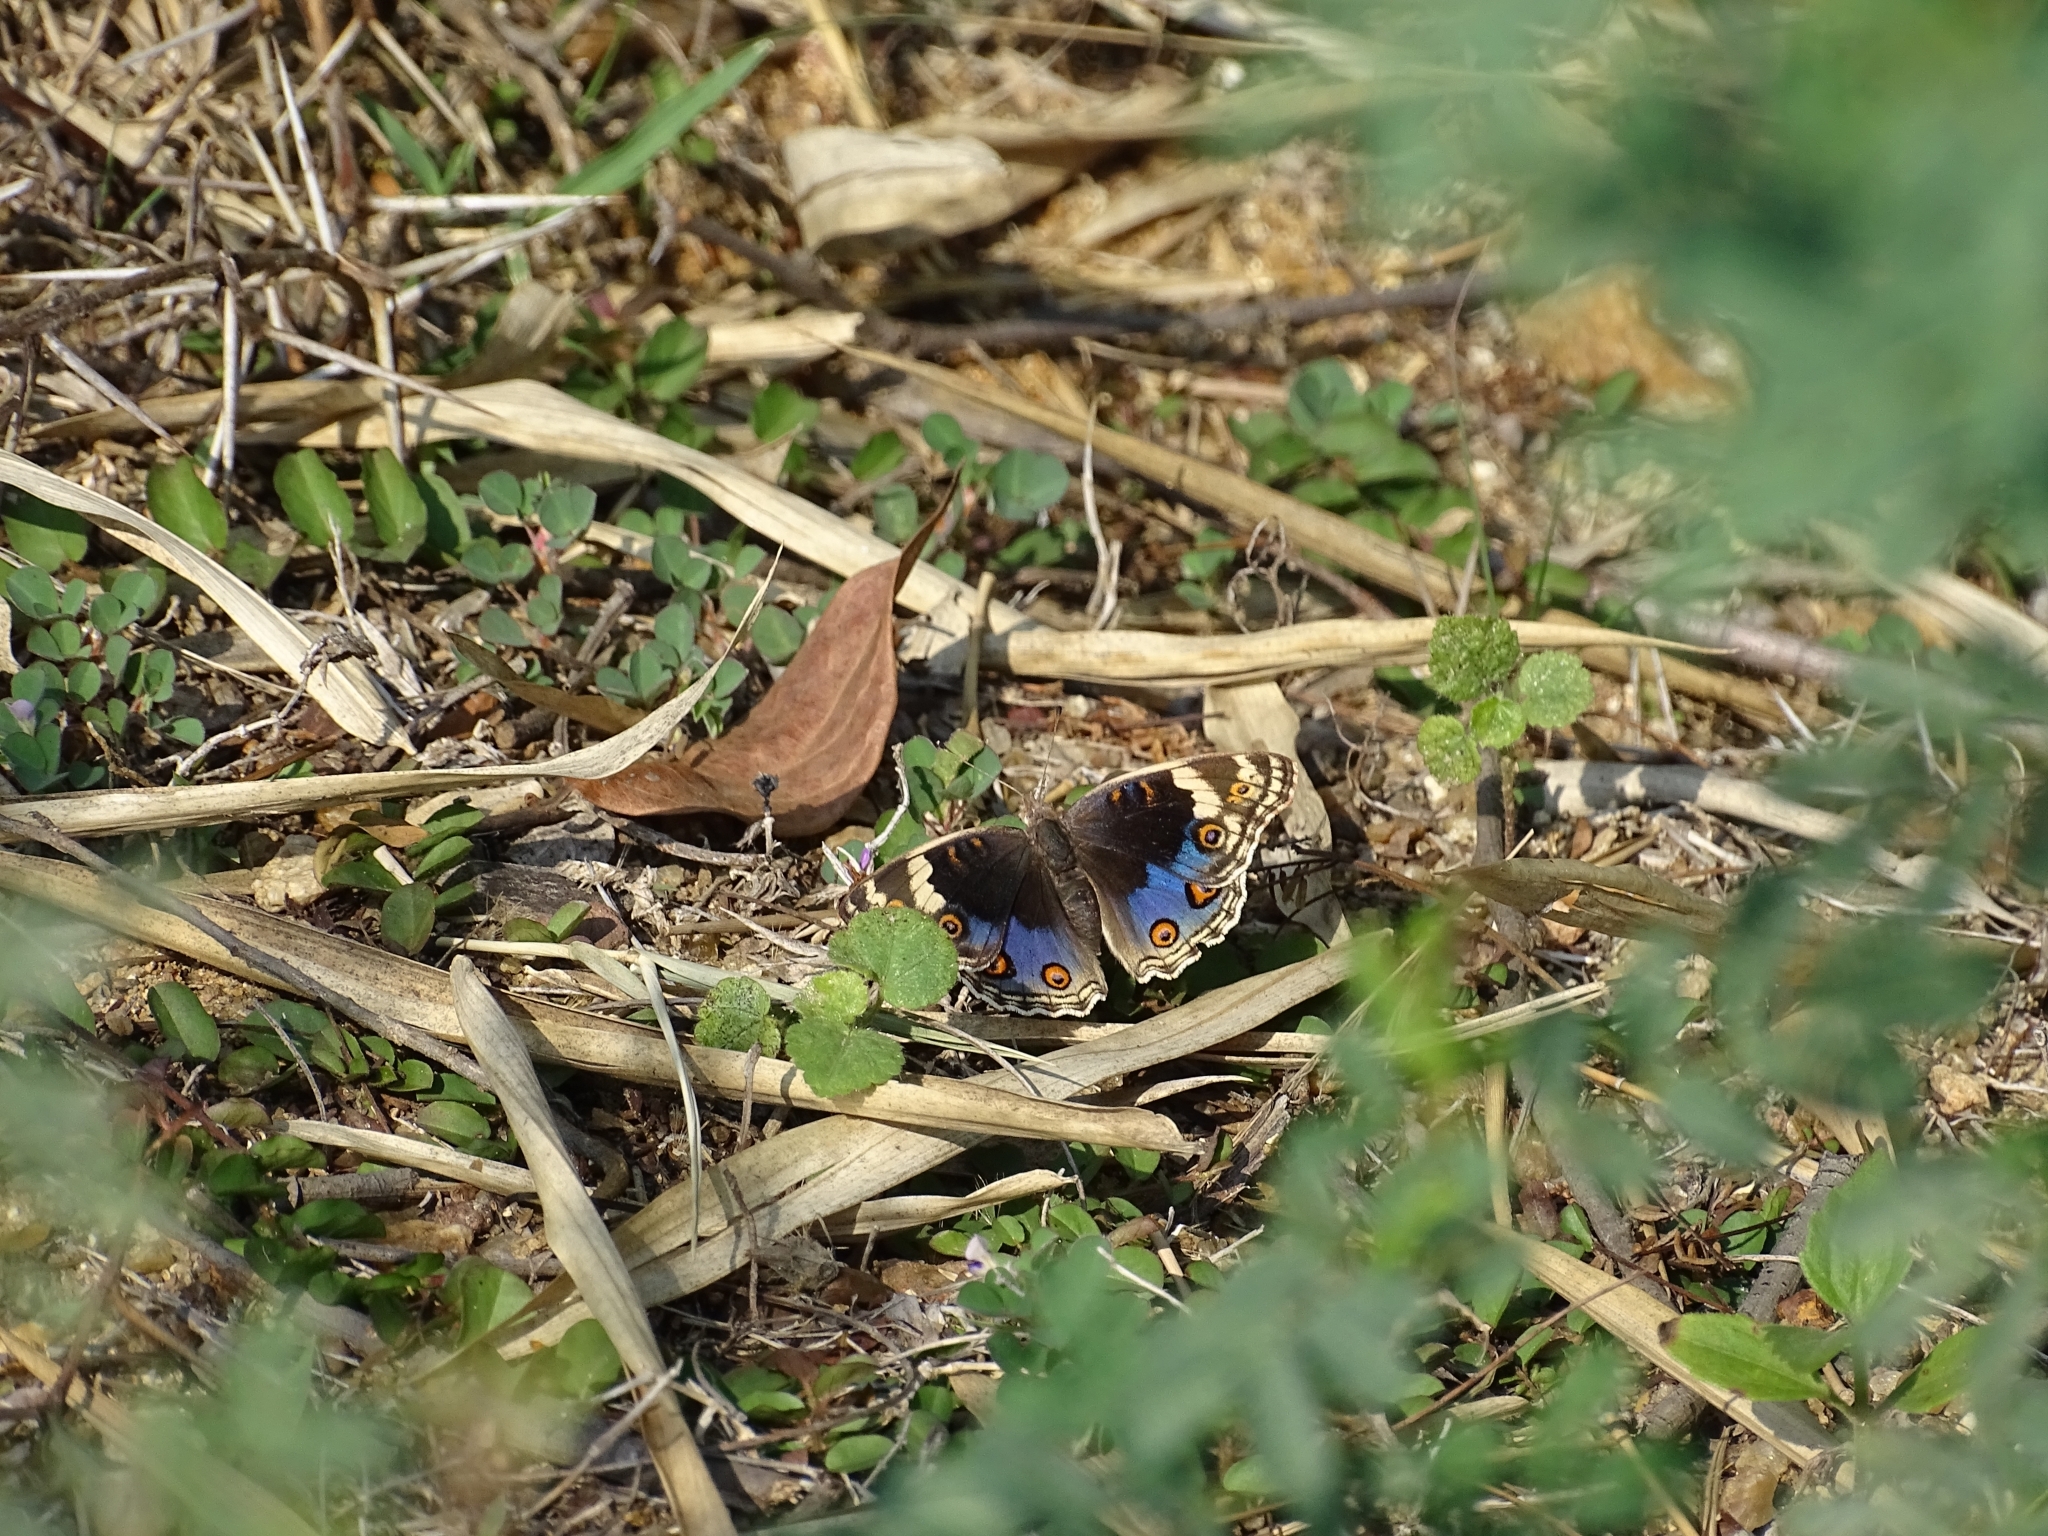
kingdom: Animalia
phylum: Arthropoda
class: Insecta
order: Lepidoptera
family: Nymphalidae
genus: Junonia
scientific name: Junonia orithya
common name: Blue pansy
